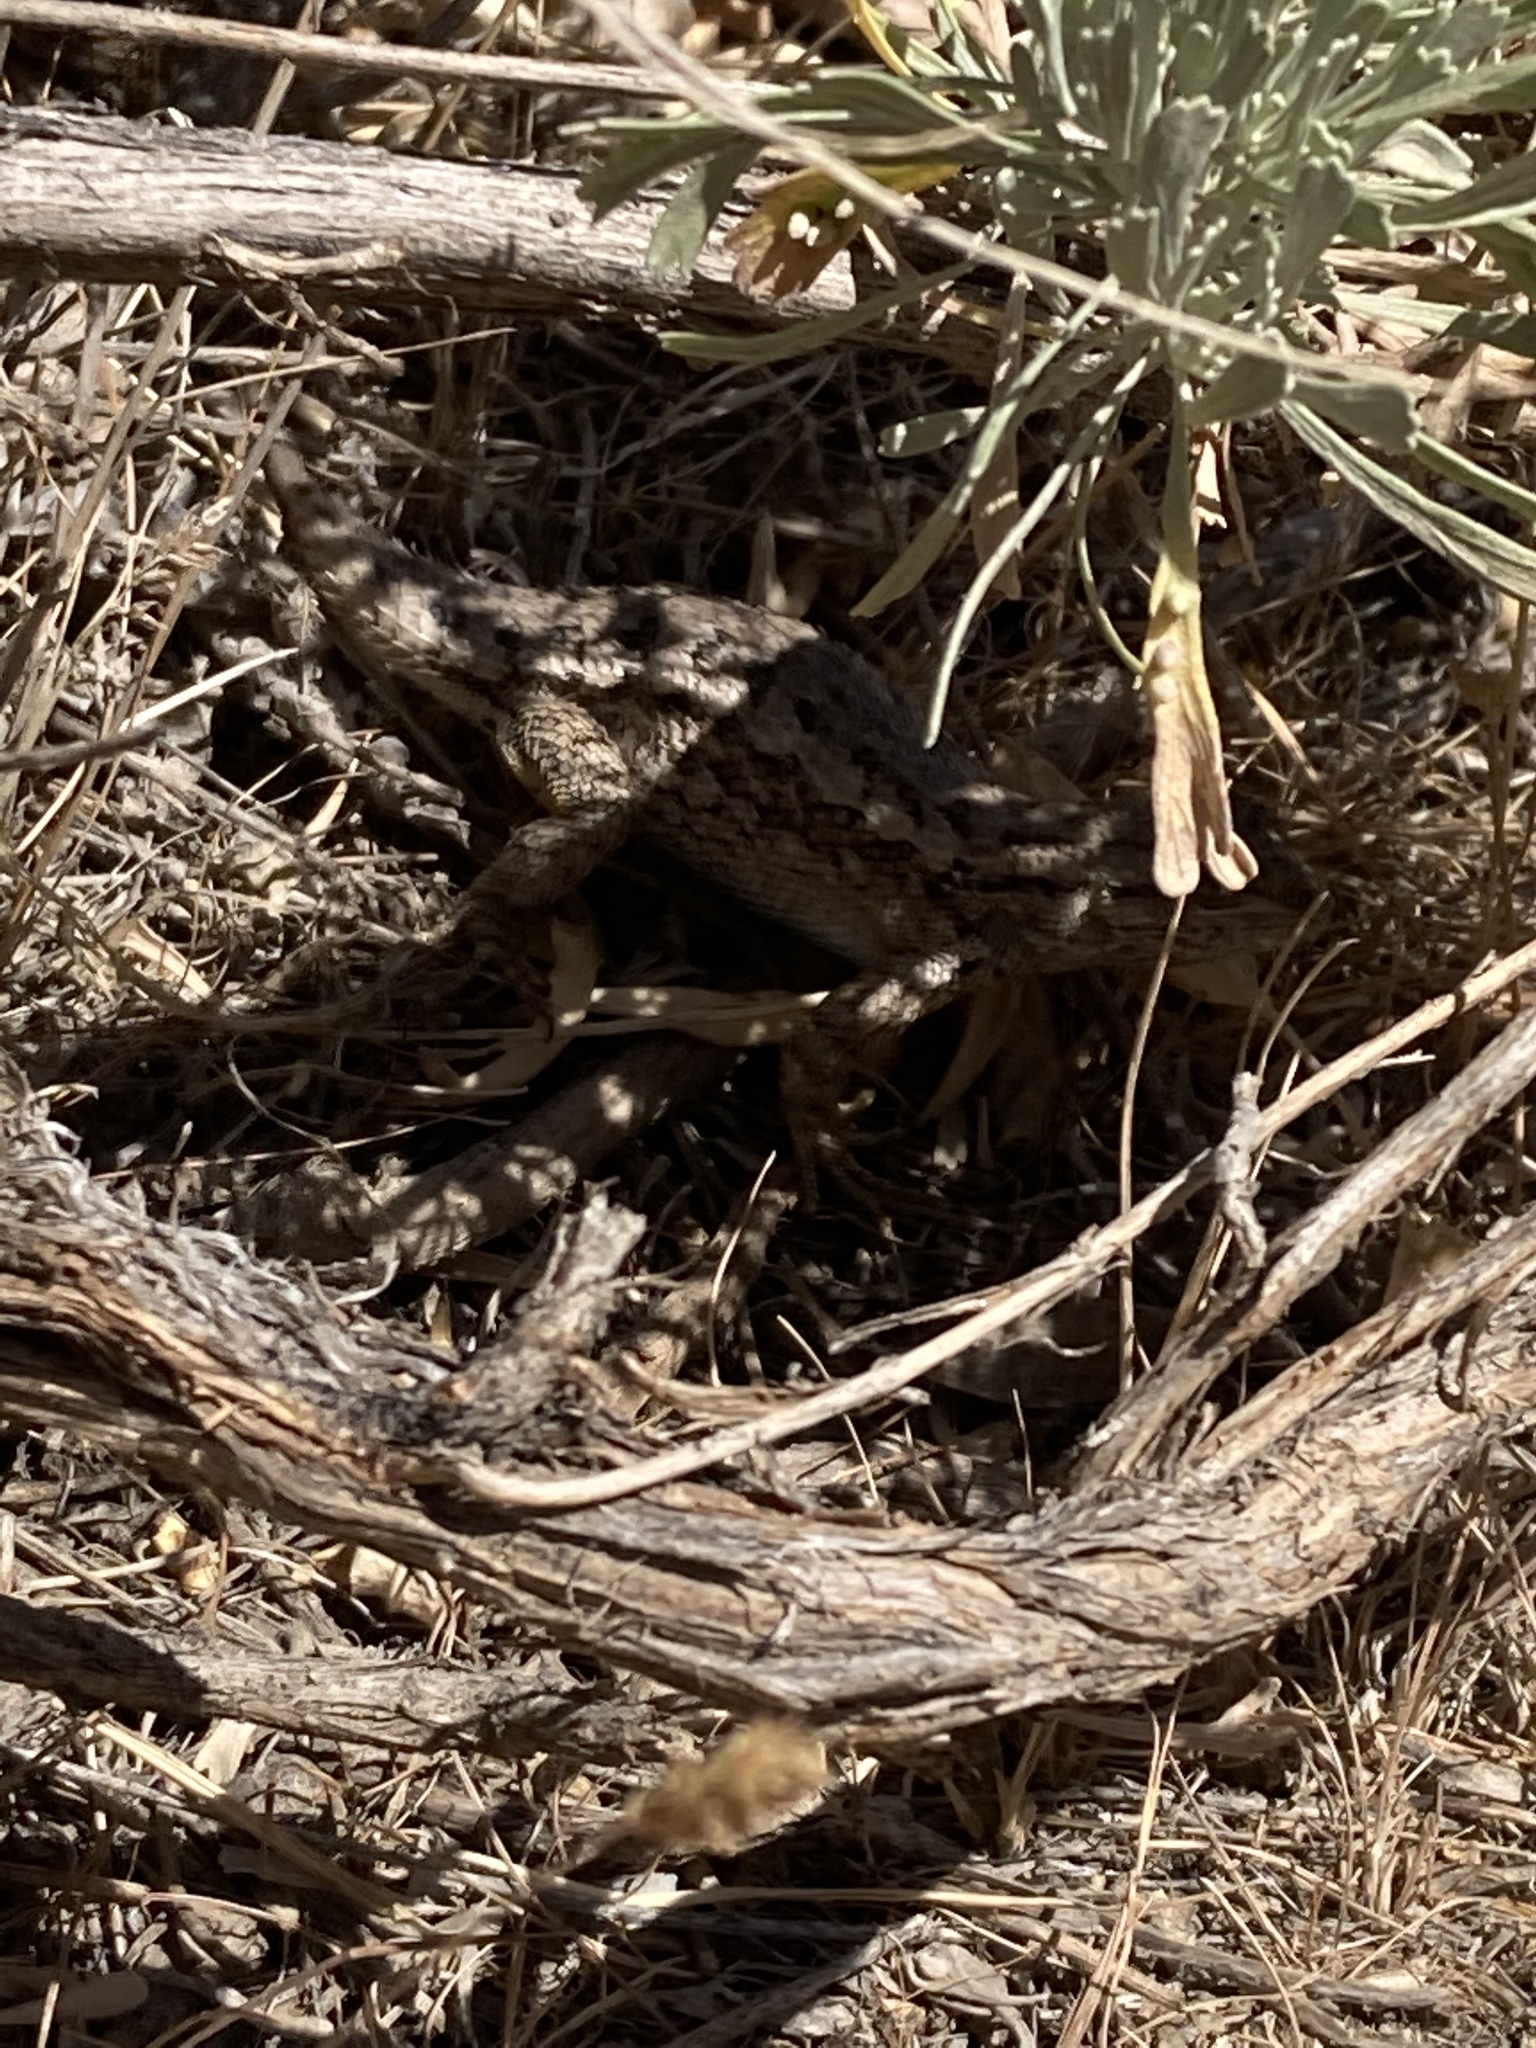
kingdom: Animalia
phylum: Chordata
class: Squamata
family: Phrynosomatidae
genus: Sceloporus
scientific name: Sceloporus occidentalis
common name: Western fence lizard
